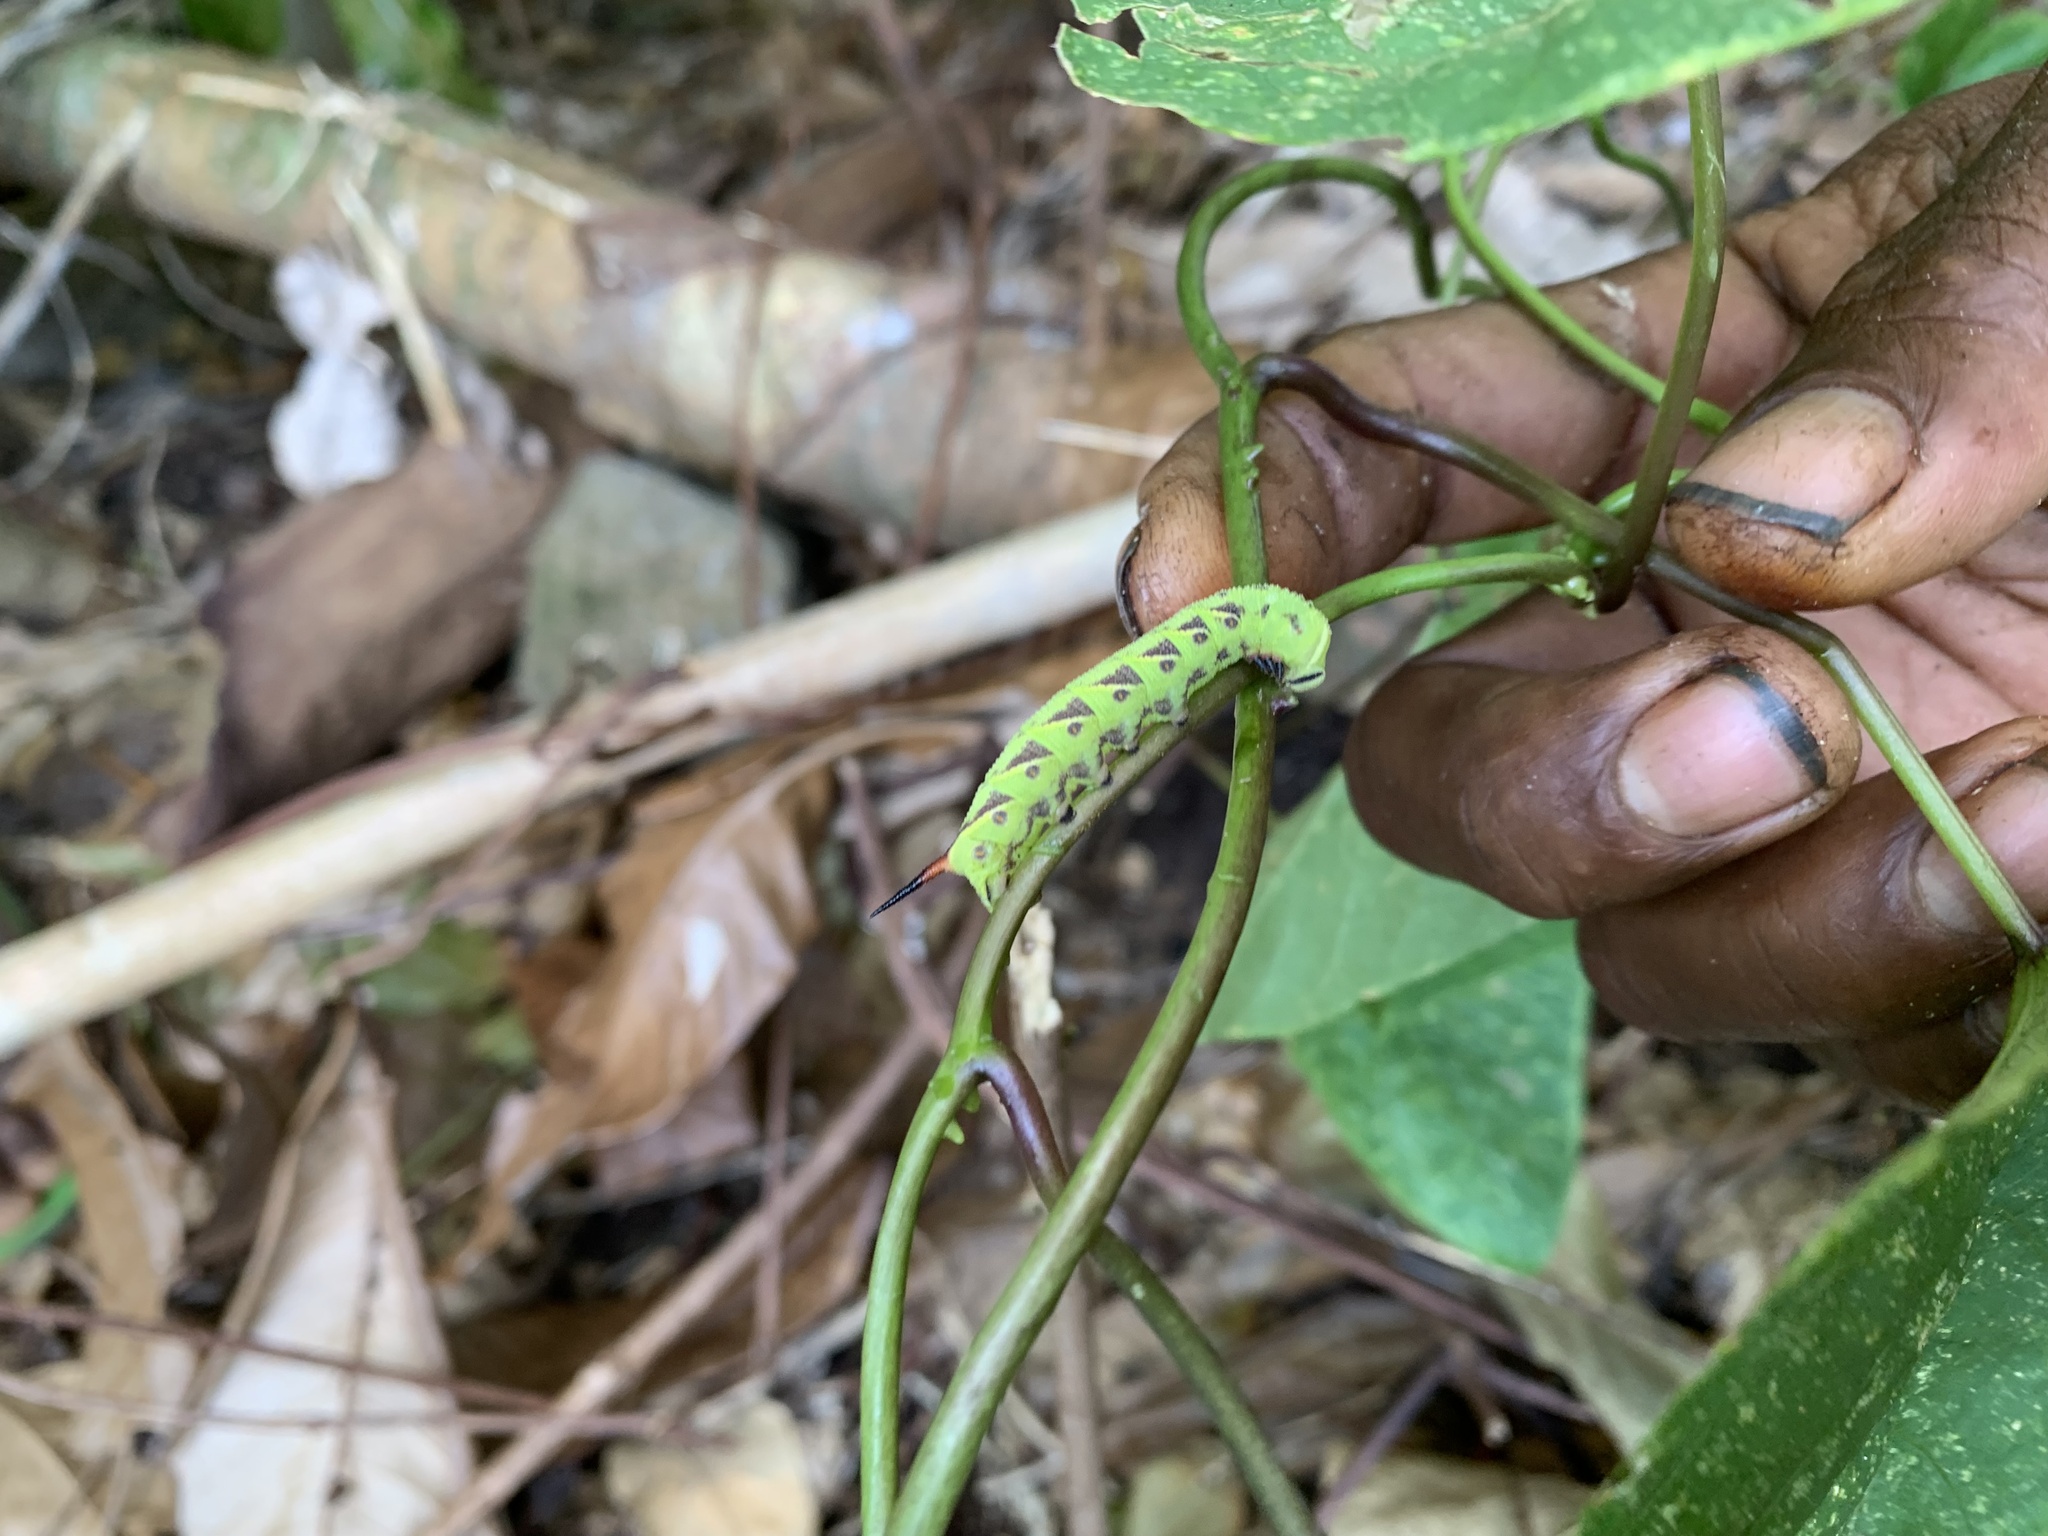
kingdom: Animalia
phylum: Arthropoda
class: Insecta
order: Lepidoptera
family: Sphingidae
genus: Agrius
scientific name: Agrius convolvuli
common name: Convolvulus hawkmoth
